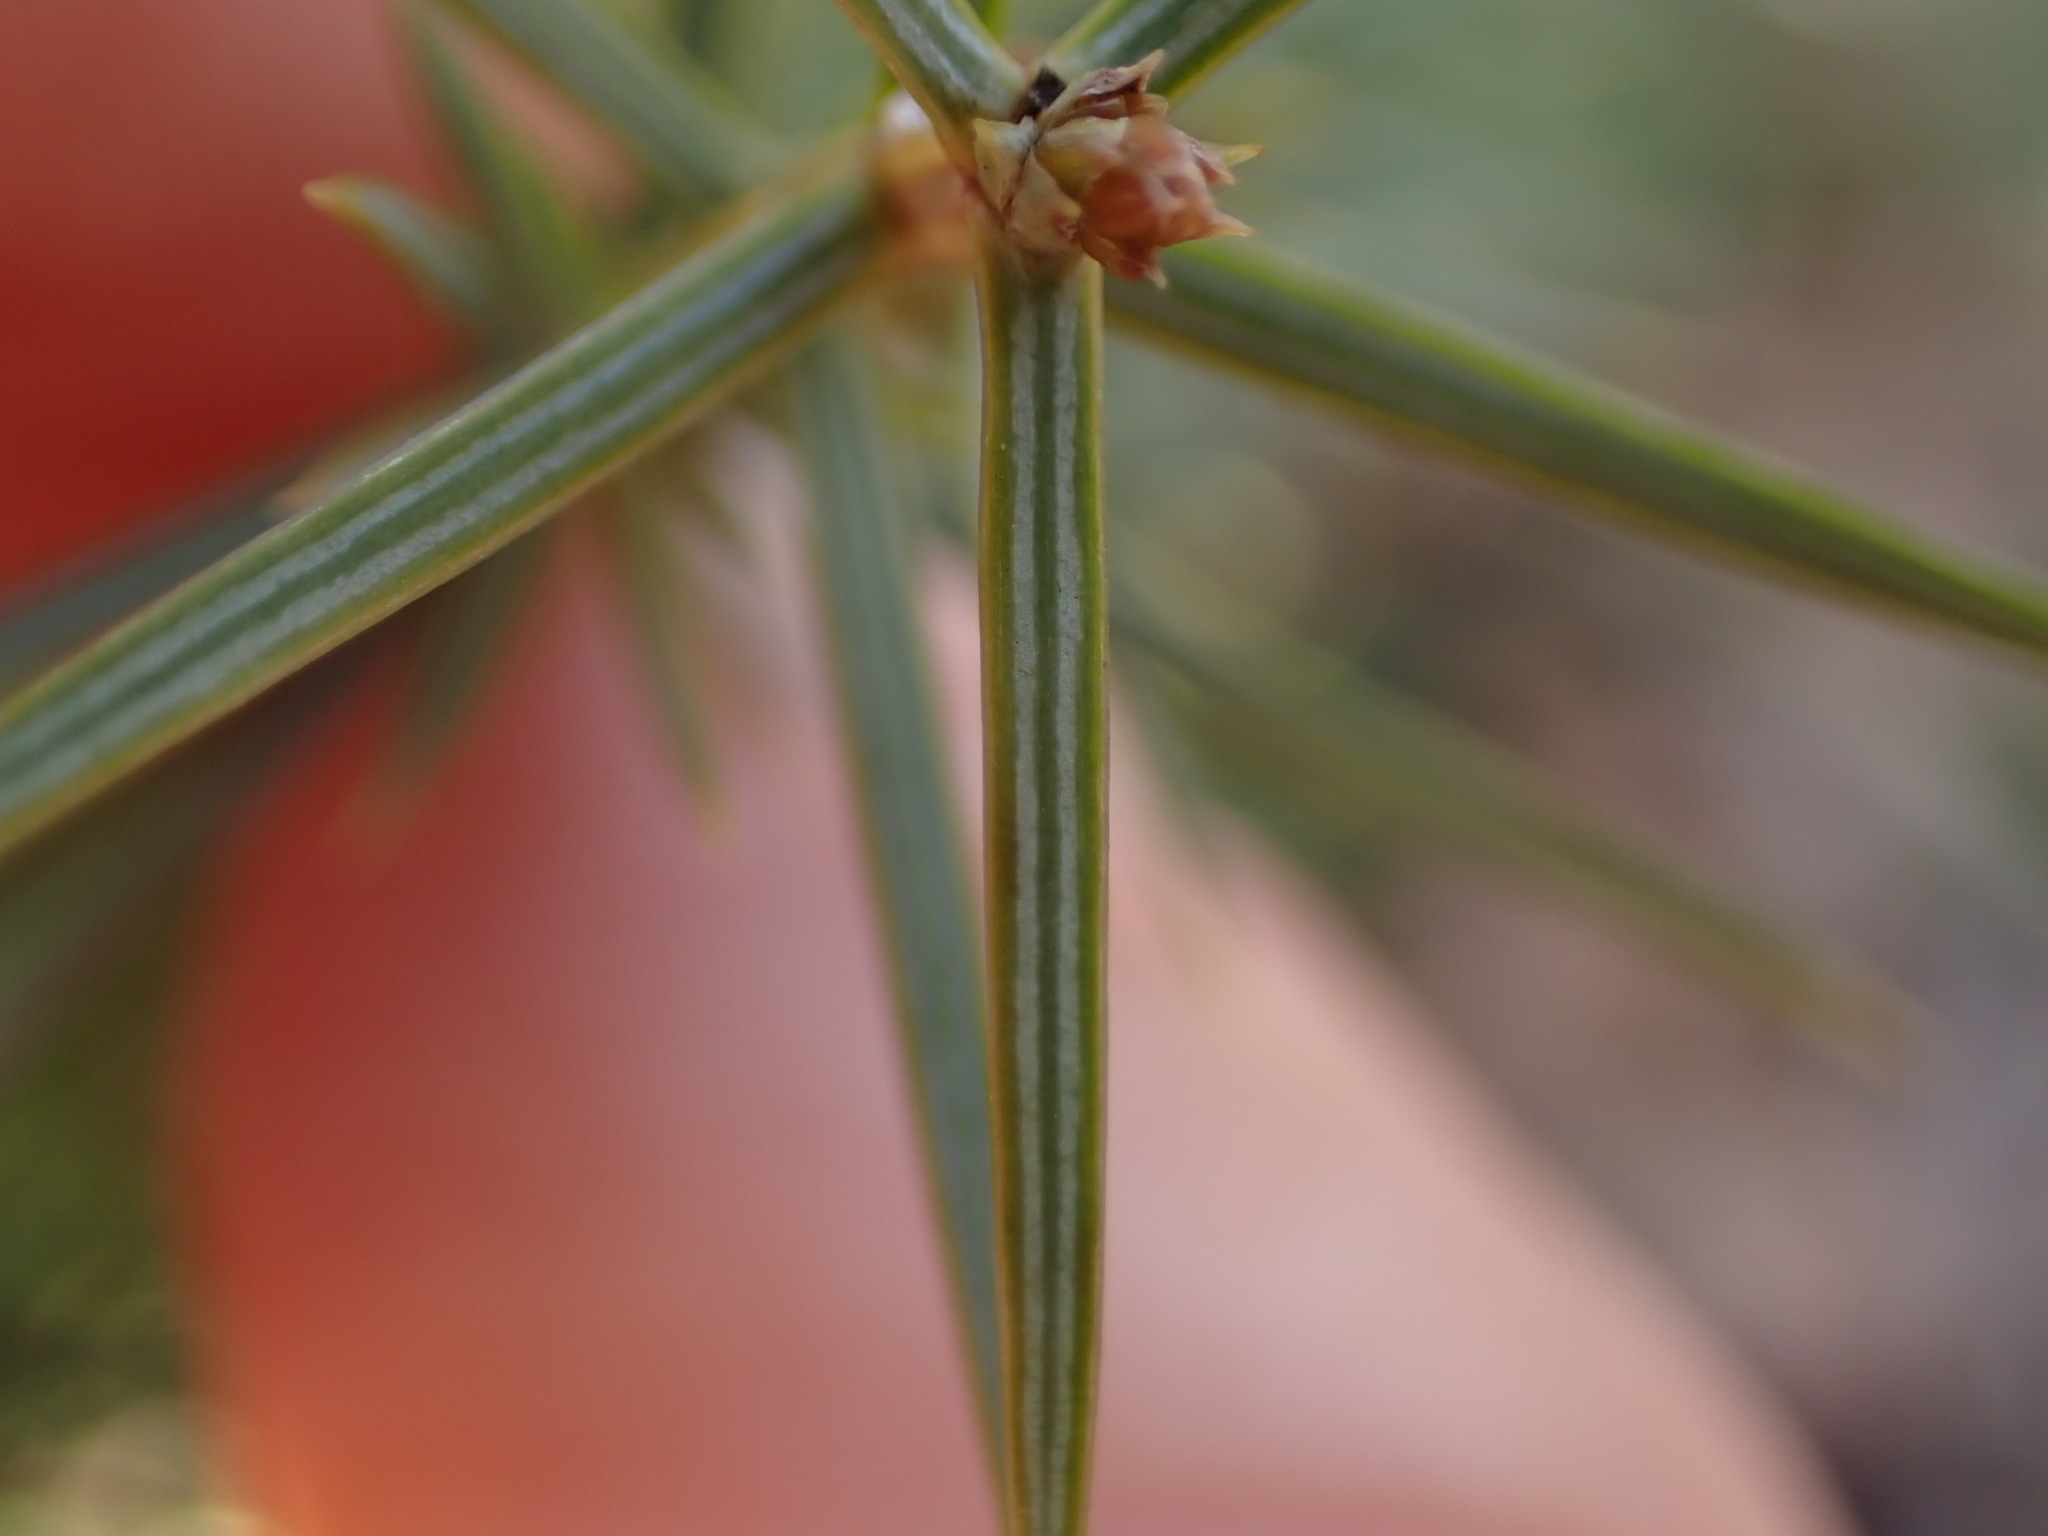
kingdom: Plantae
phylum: Tracheophyta
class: Pinopsida
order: Pinales
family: Cupressaceae
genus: Juniperus
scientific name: Juniperus oxycedrus
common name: Prickly juniper
